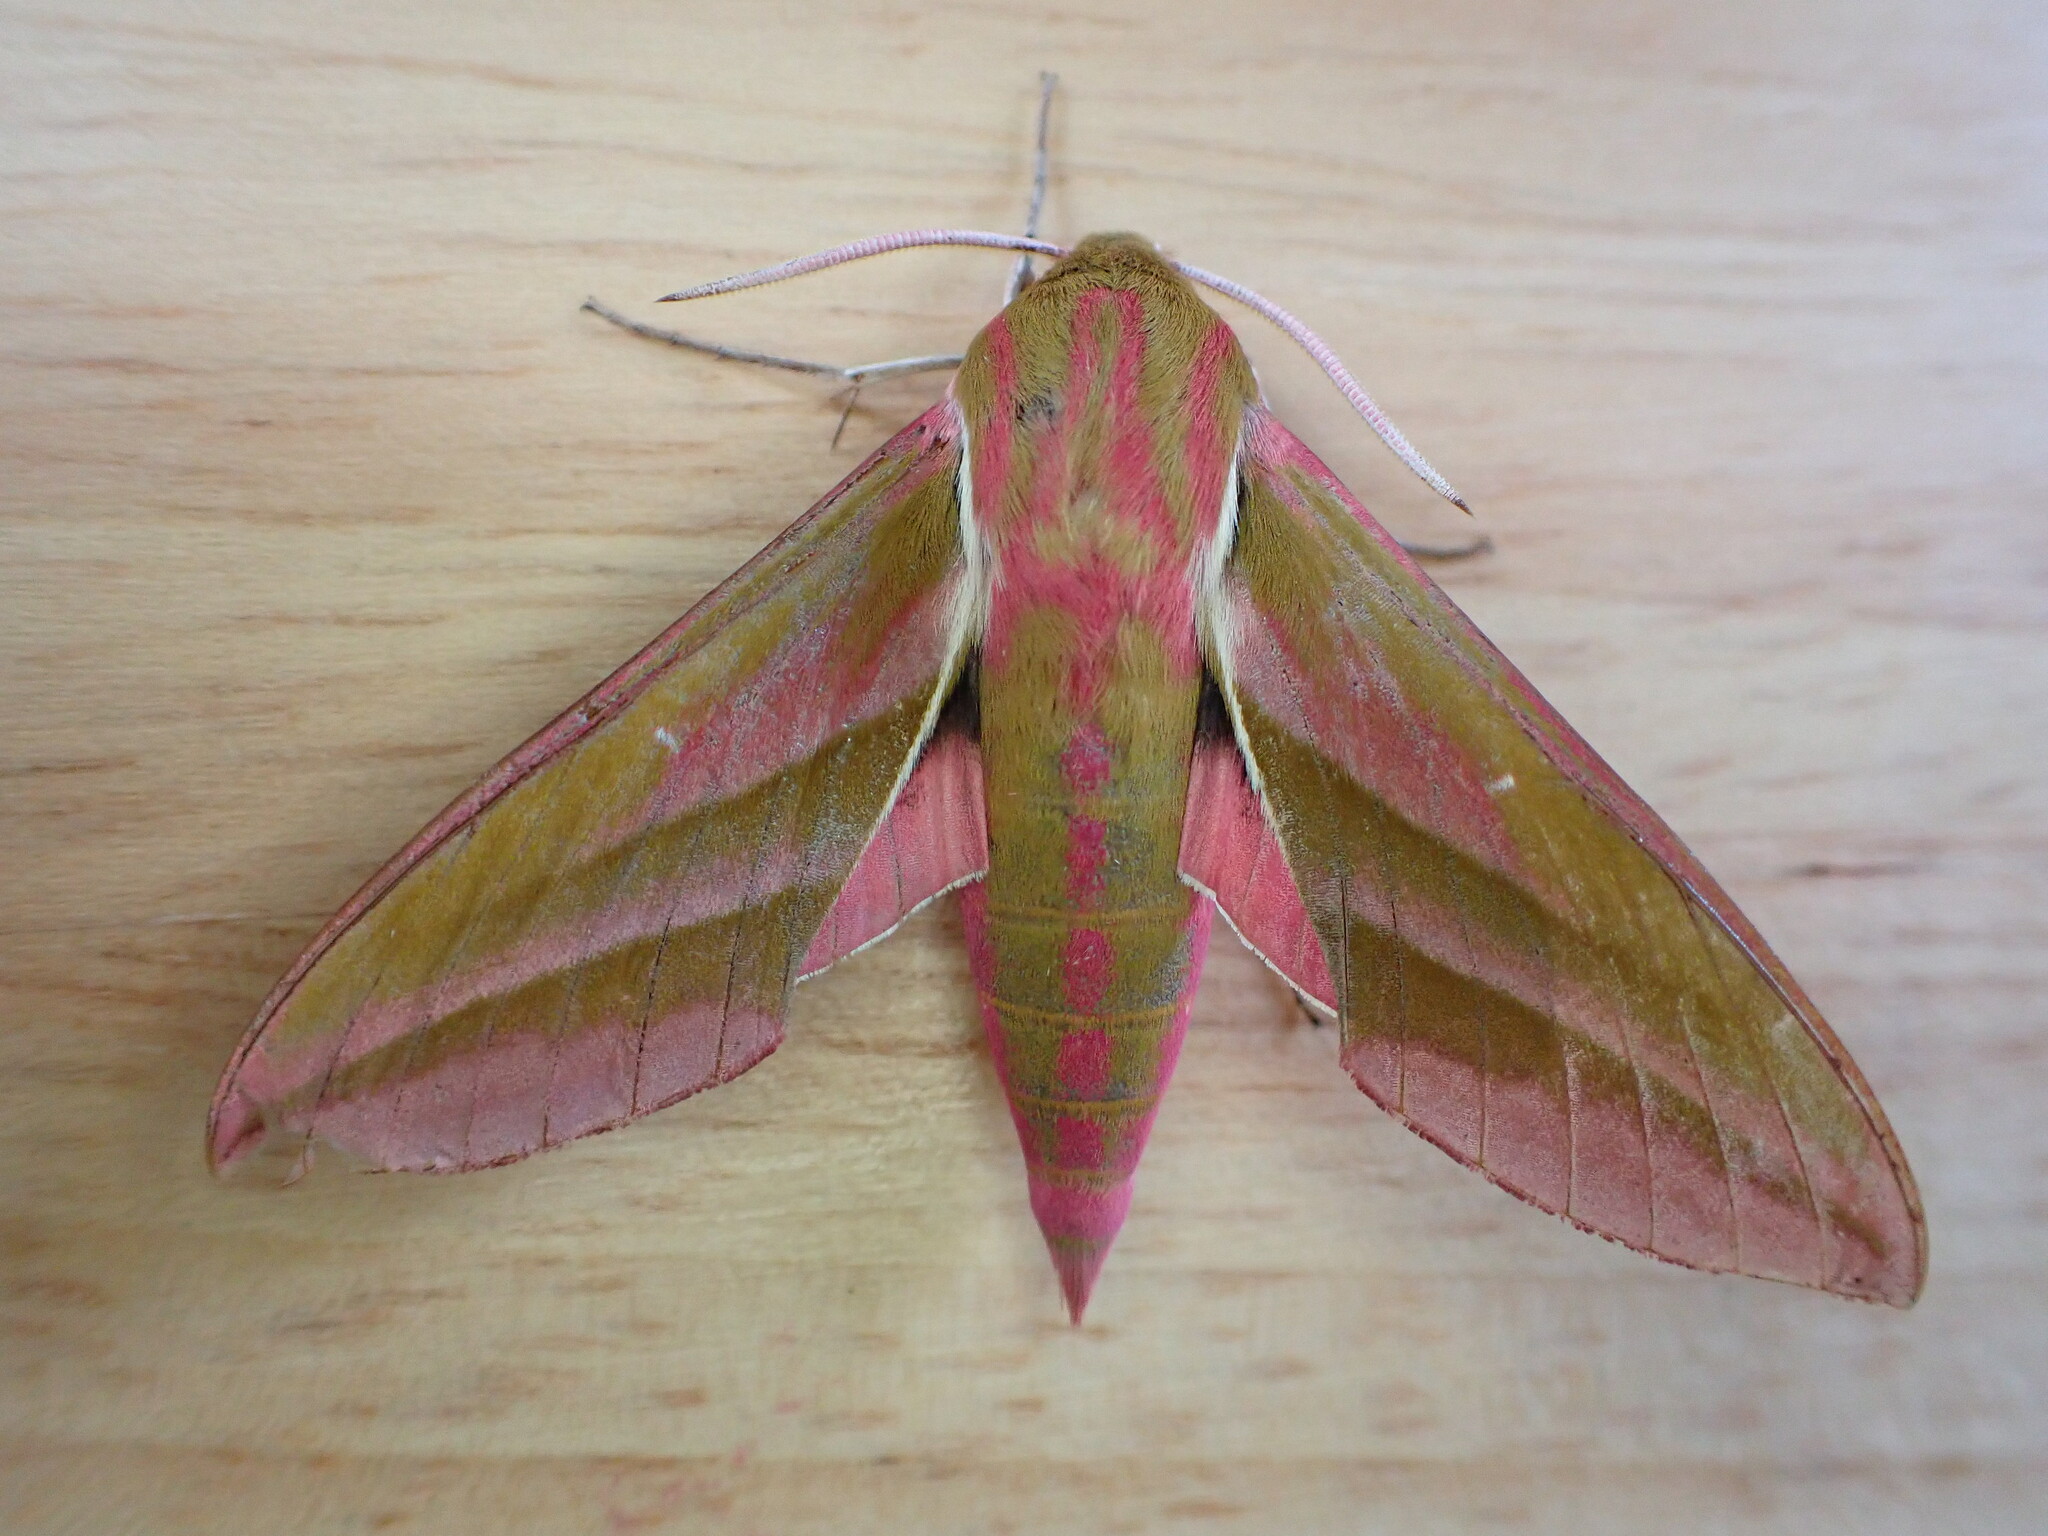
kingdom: Animalia
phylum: Arthropoda
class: Insecta
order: Lepidoptera
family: Sphingidae
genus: Deilephila
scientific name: Deilephila elpenor
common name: Elephant hawk-moth
